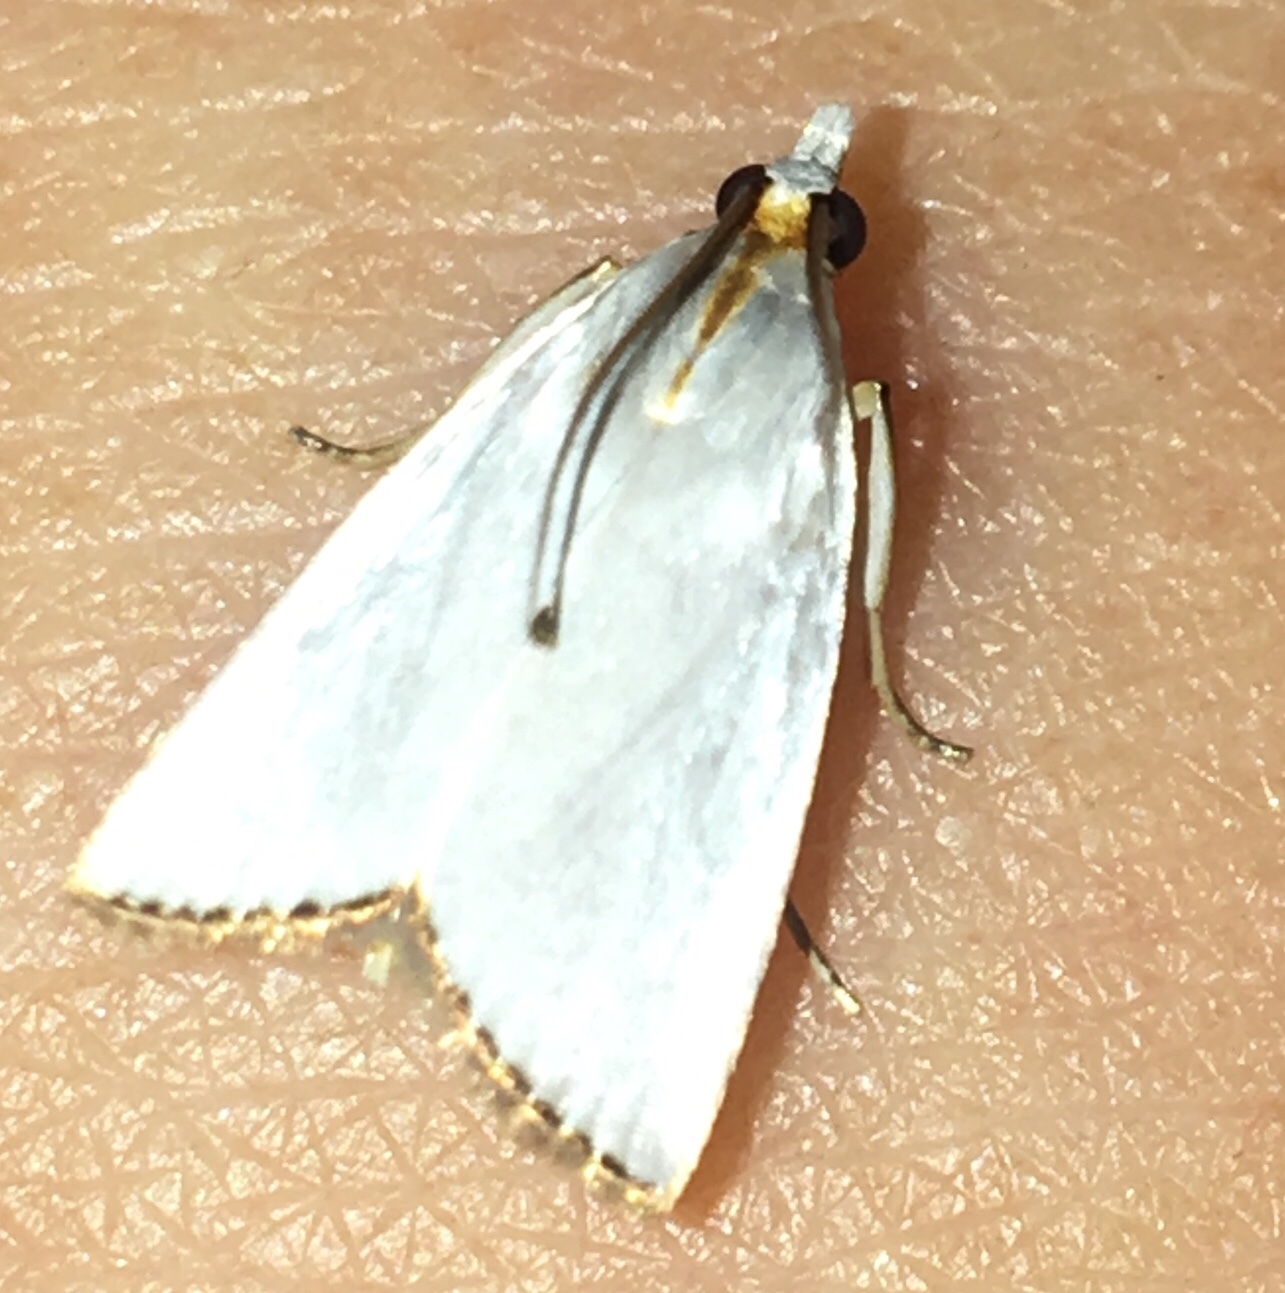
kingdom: Animalia
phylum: Arthropoda
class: Insecta
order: Lepidoptera
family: Crambidae
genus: Argyria
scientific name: Argyria nivalis
